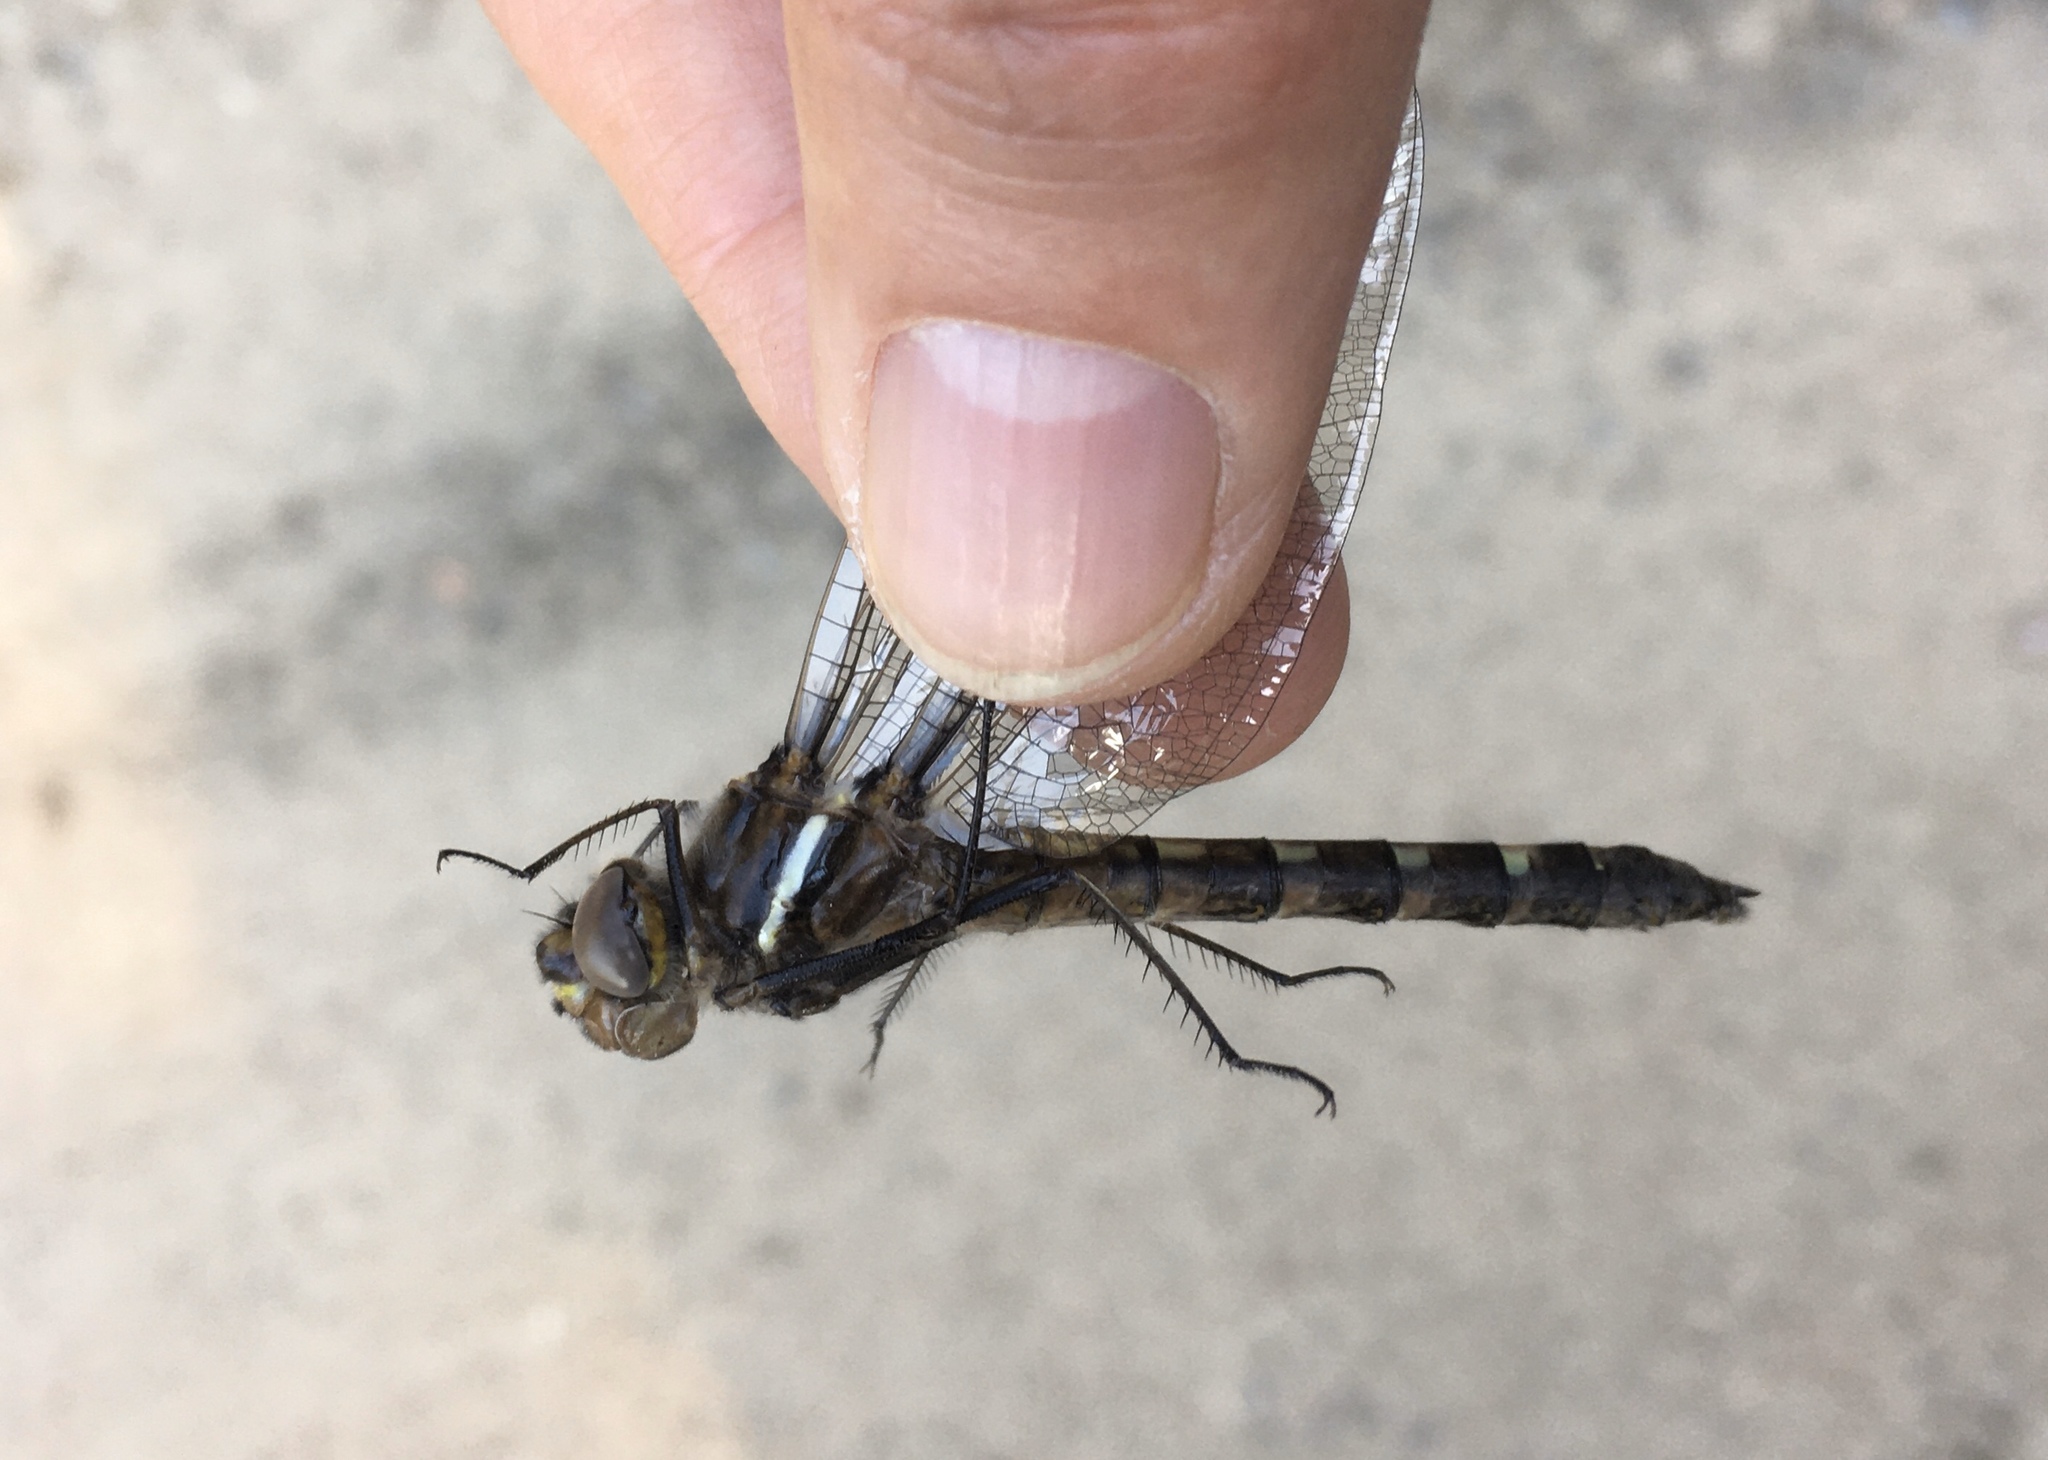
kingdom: Animalia
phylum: Arthropoda
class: Insecta
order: Odonata
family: Macromiidae
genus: Didymops
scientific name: Didymops transversa
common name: Stream cruiser
